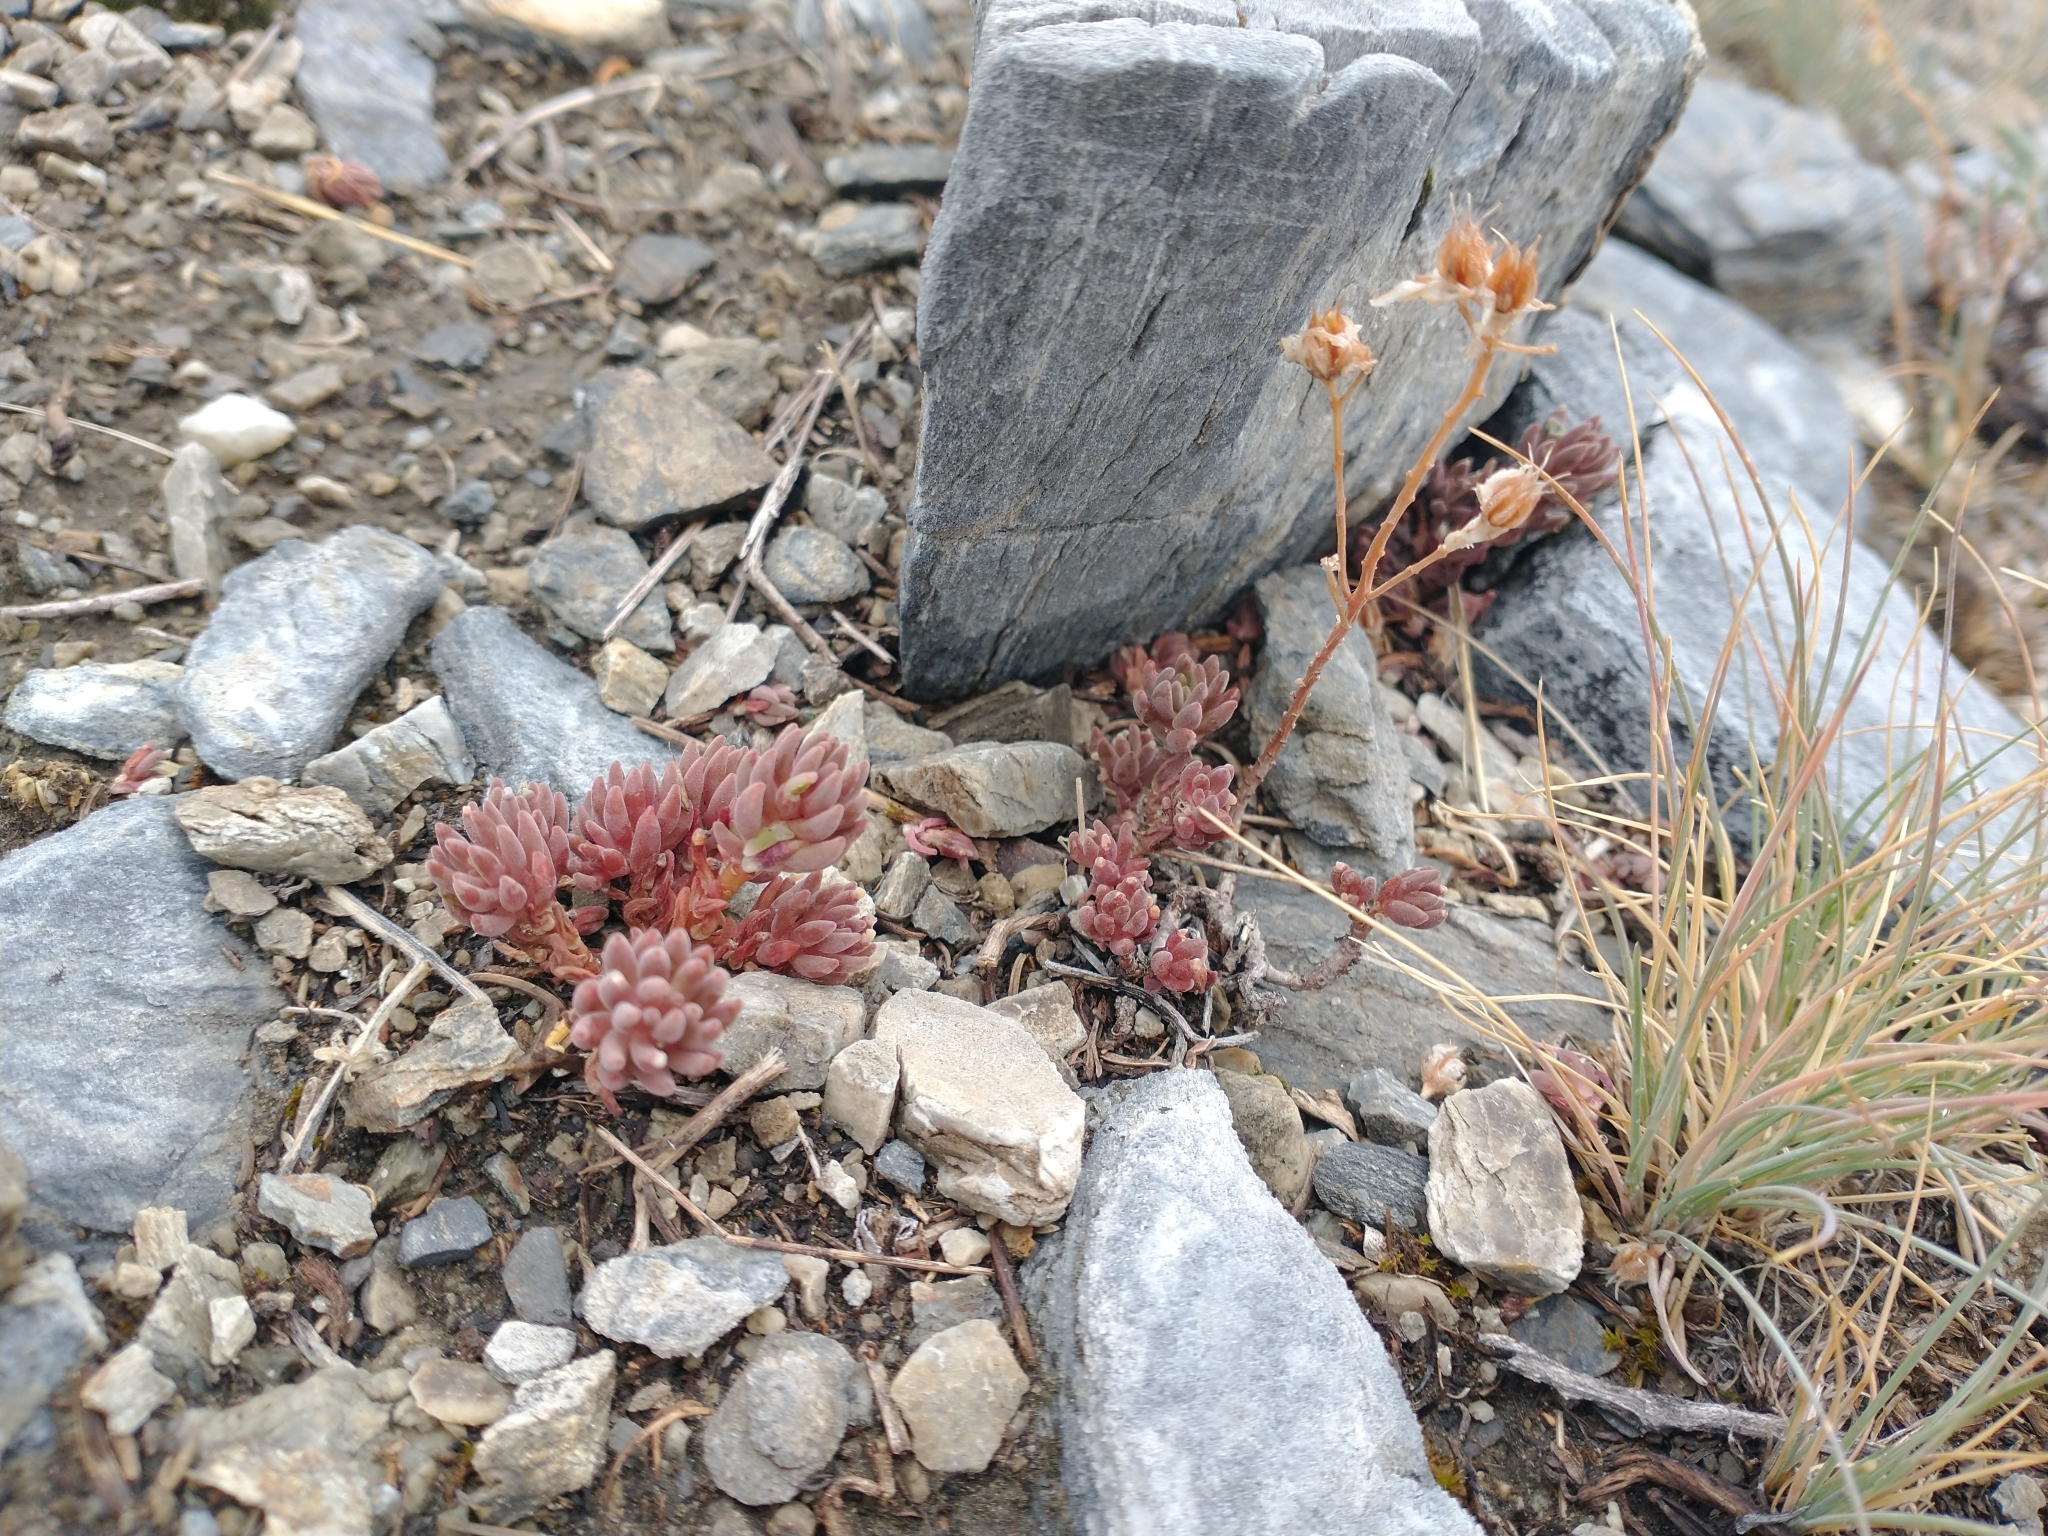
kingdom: Plantae
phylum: Tracheophyta
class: Magnoliopsida
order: Saxifragales
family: Crassulaceae
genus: Sedum
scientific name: Sedum lanceolatum
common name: Common stonecrop
